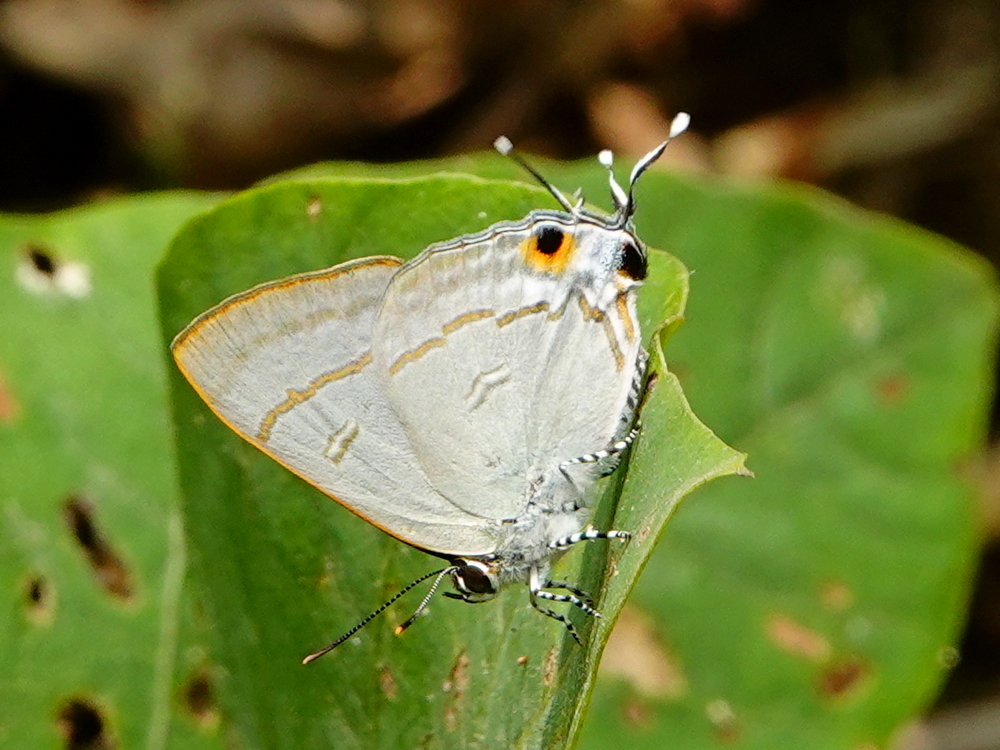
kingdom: Animalia
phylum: Arthropoda
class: Insecta
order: Lepidoptera
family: Lycaenidae
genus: Hypolycaena
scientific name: Hypolycaena erylus
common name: Common tit
